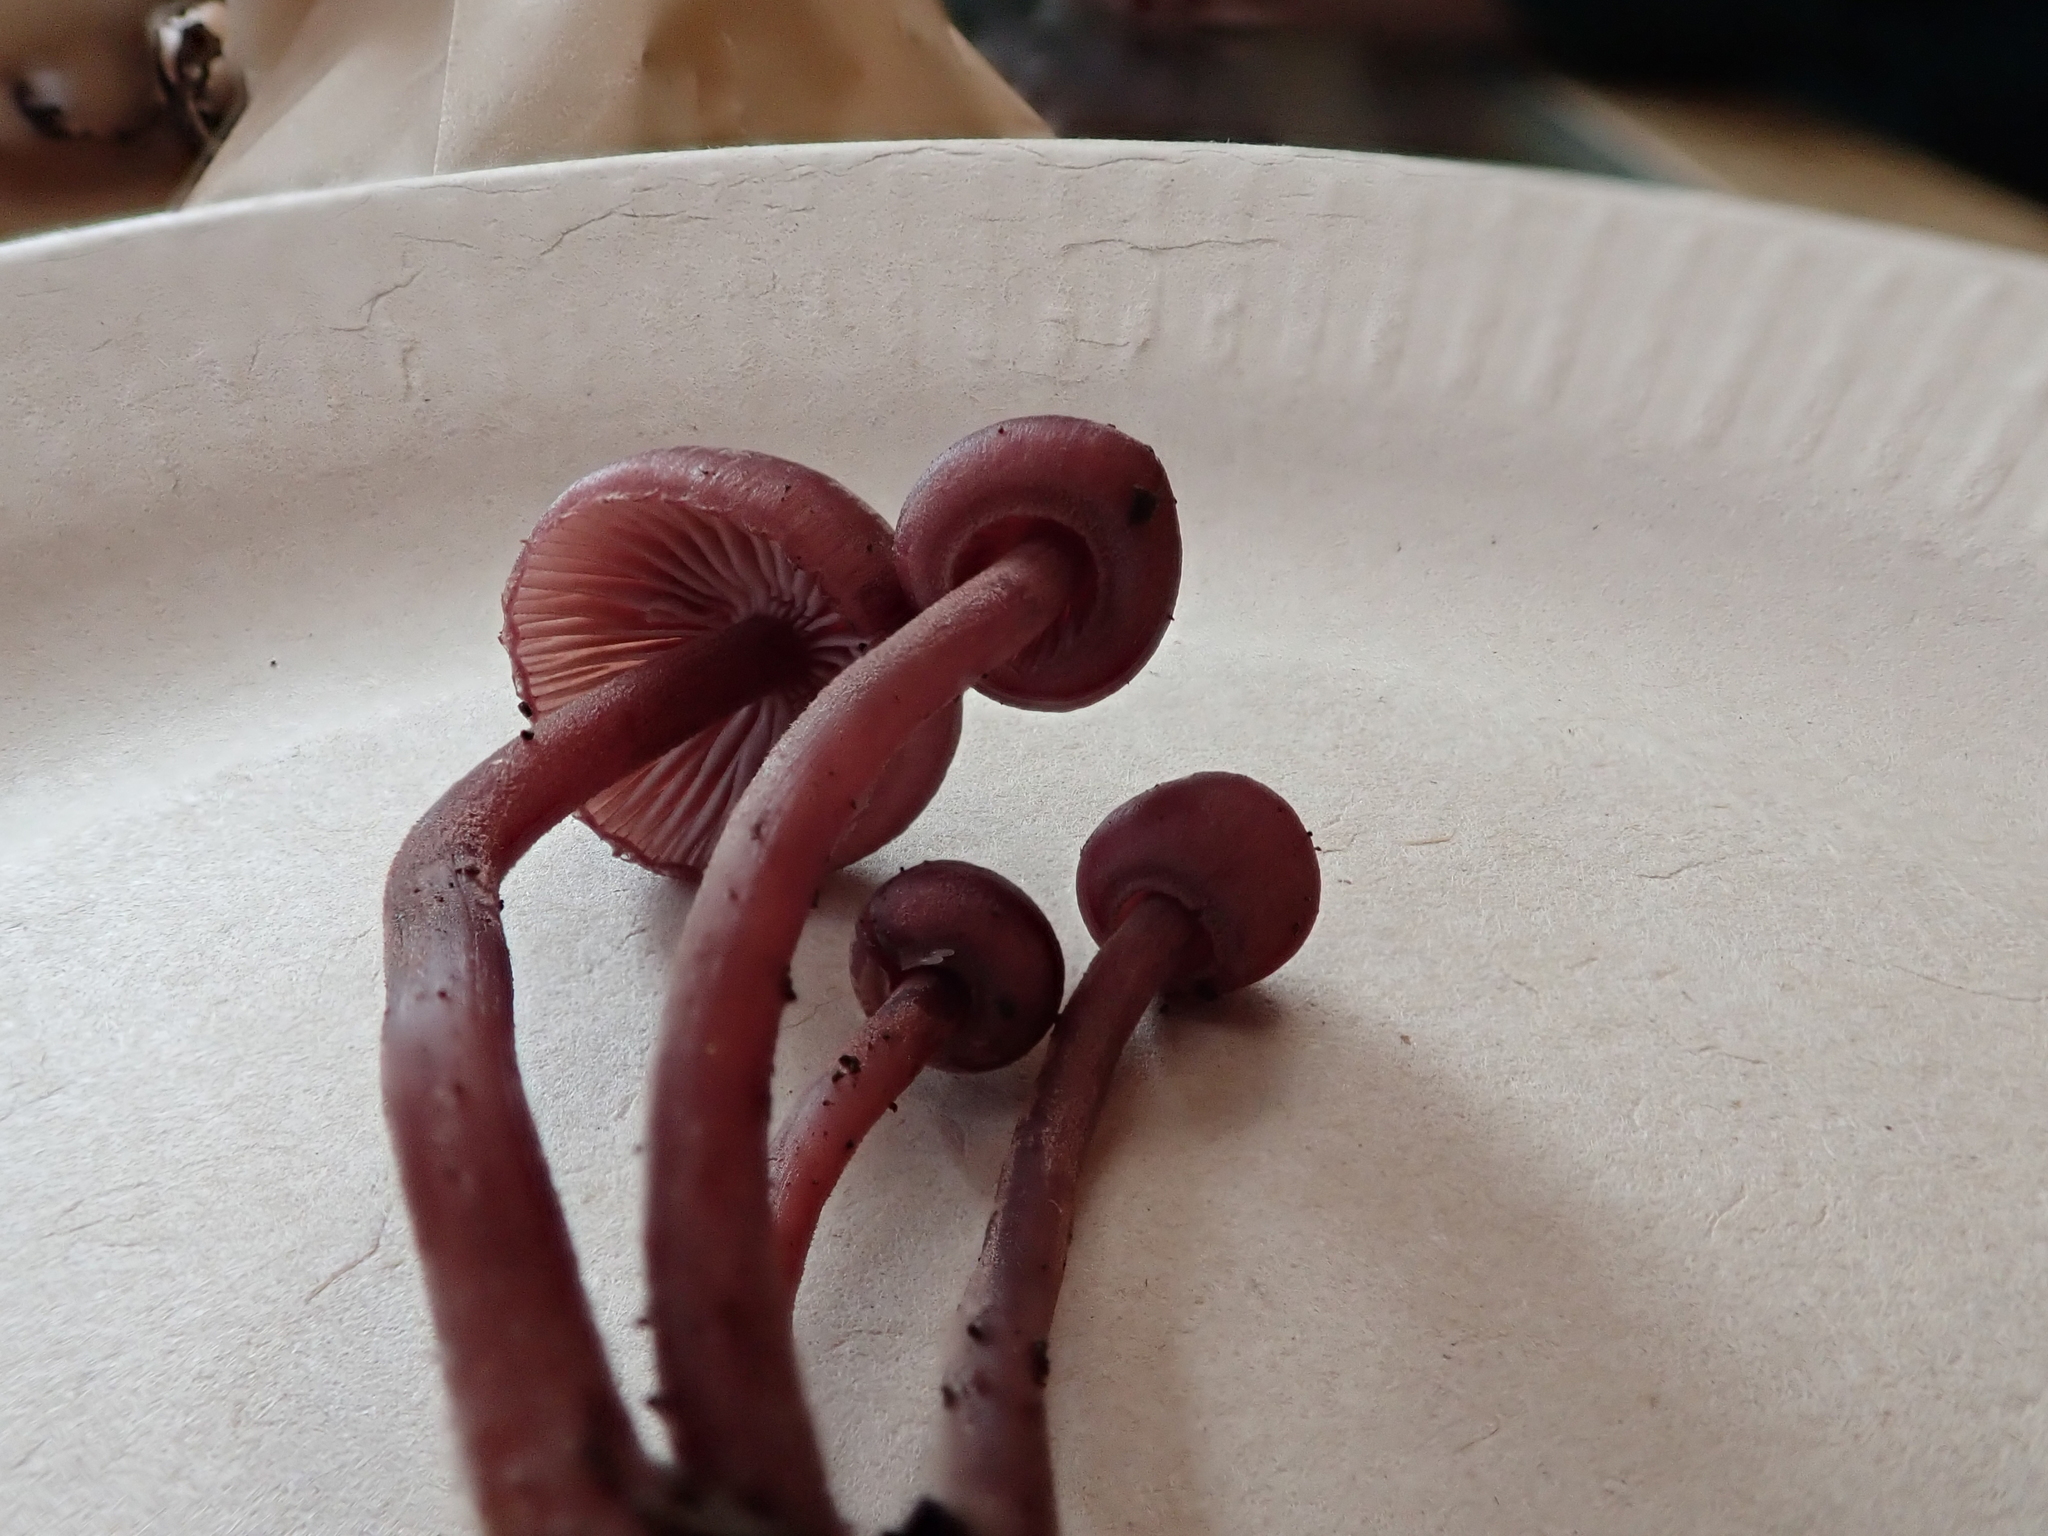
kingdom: Fungi
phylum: Basidiomycota
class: Agaricomycetes
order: Agaricales
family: Mycenaceae
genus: Mycena
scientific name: Mycena haematopus
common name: Burgundydrop bonnet
